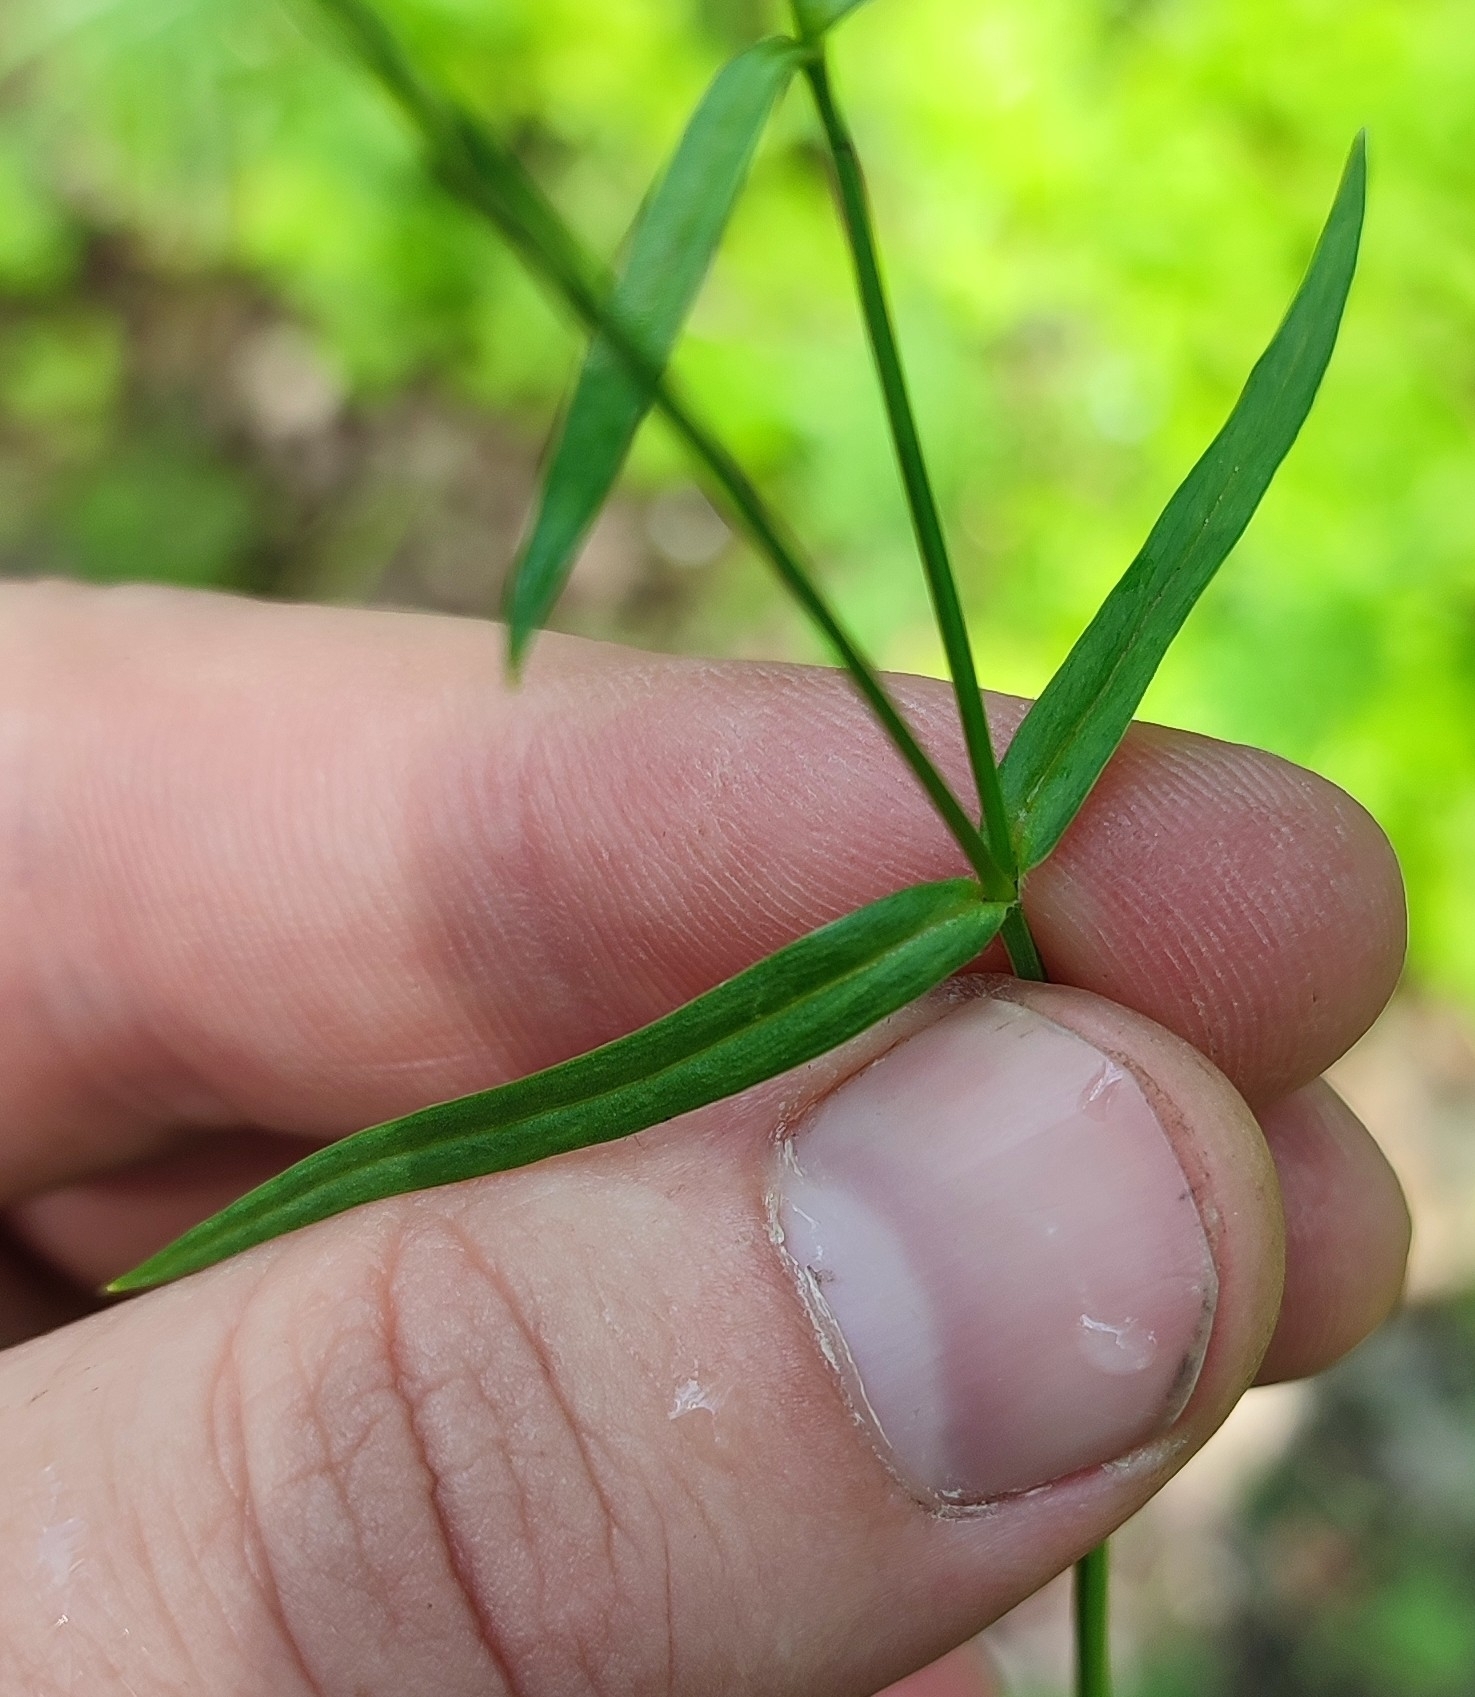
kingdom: Plantae
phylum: Tracheophyta
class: Magnoliopsida
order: Caryophyllales
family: Caryophyllaceae
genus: Stellaria
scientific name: Stellaria graminea
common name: Grass-like starwort
